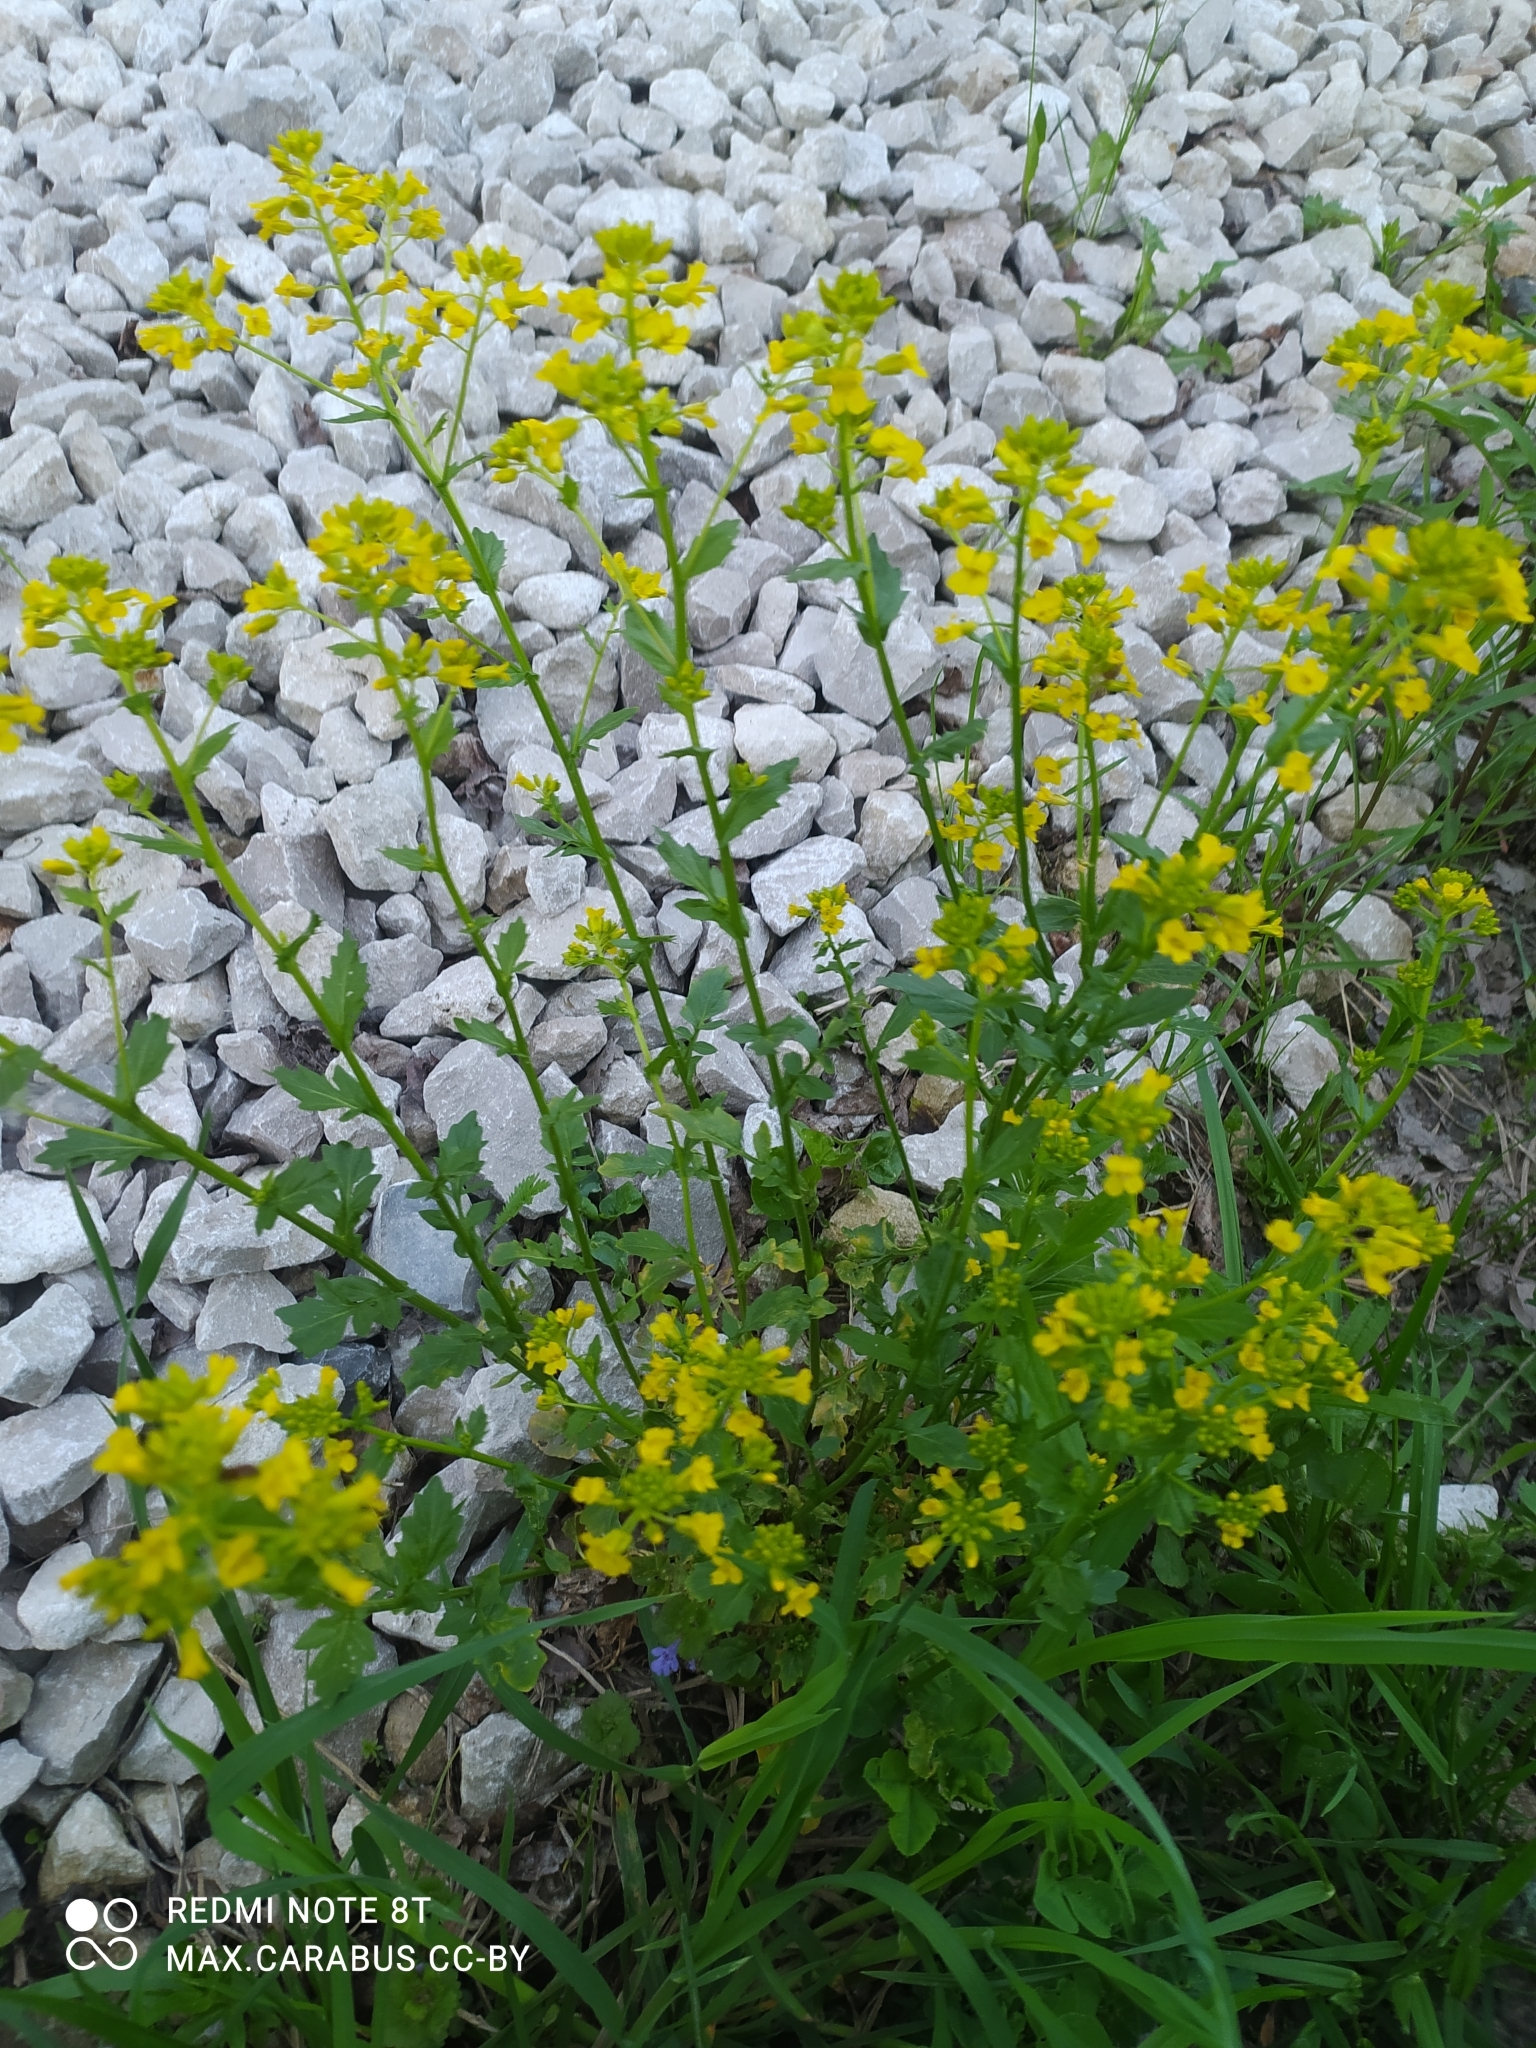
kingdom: Plantae
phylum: Tracheophyta
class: Magnoliopsida
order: Brassicales
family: Brassicaceae
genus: Barbarea
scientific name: Barbarea vulgaris
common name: Cressy-greens
